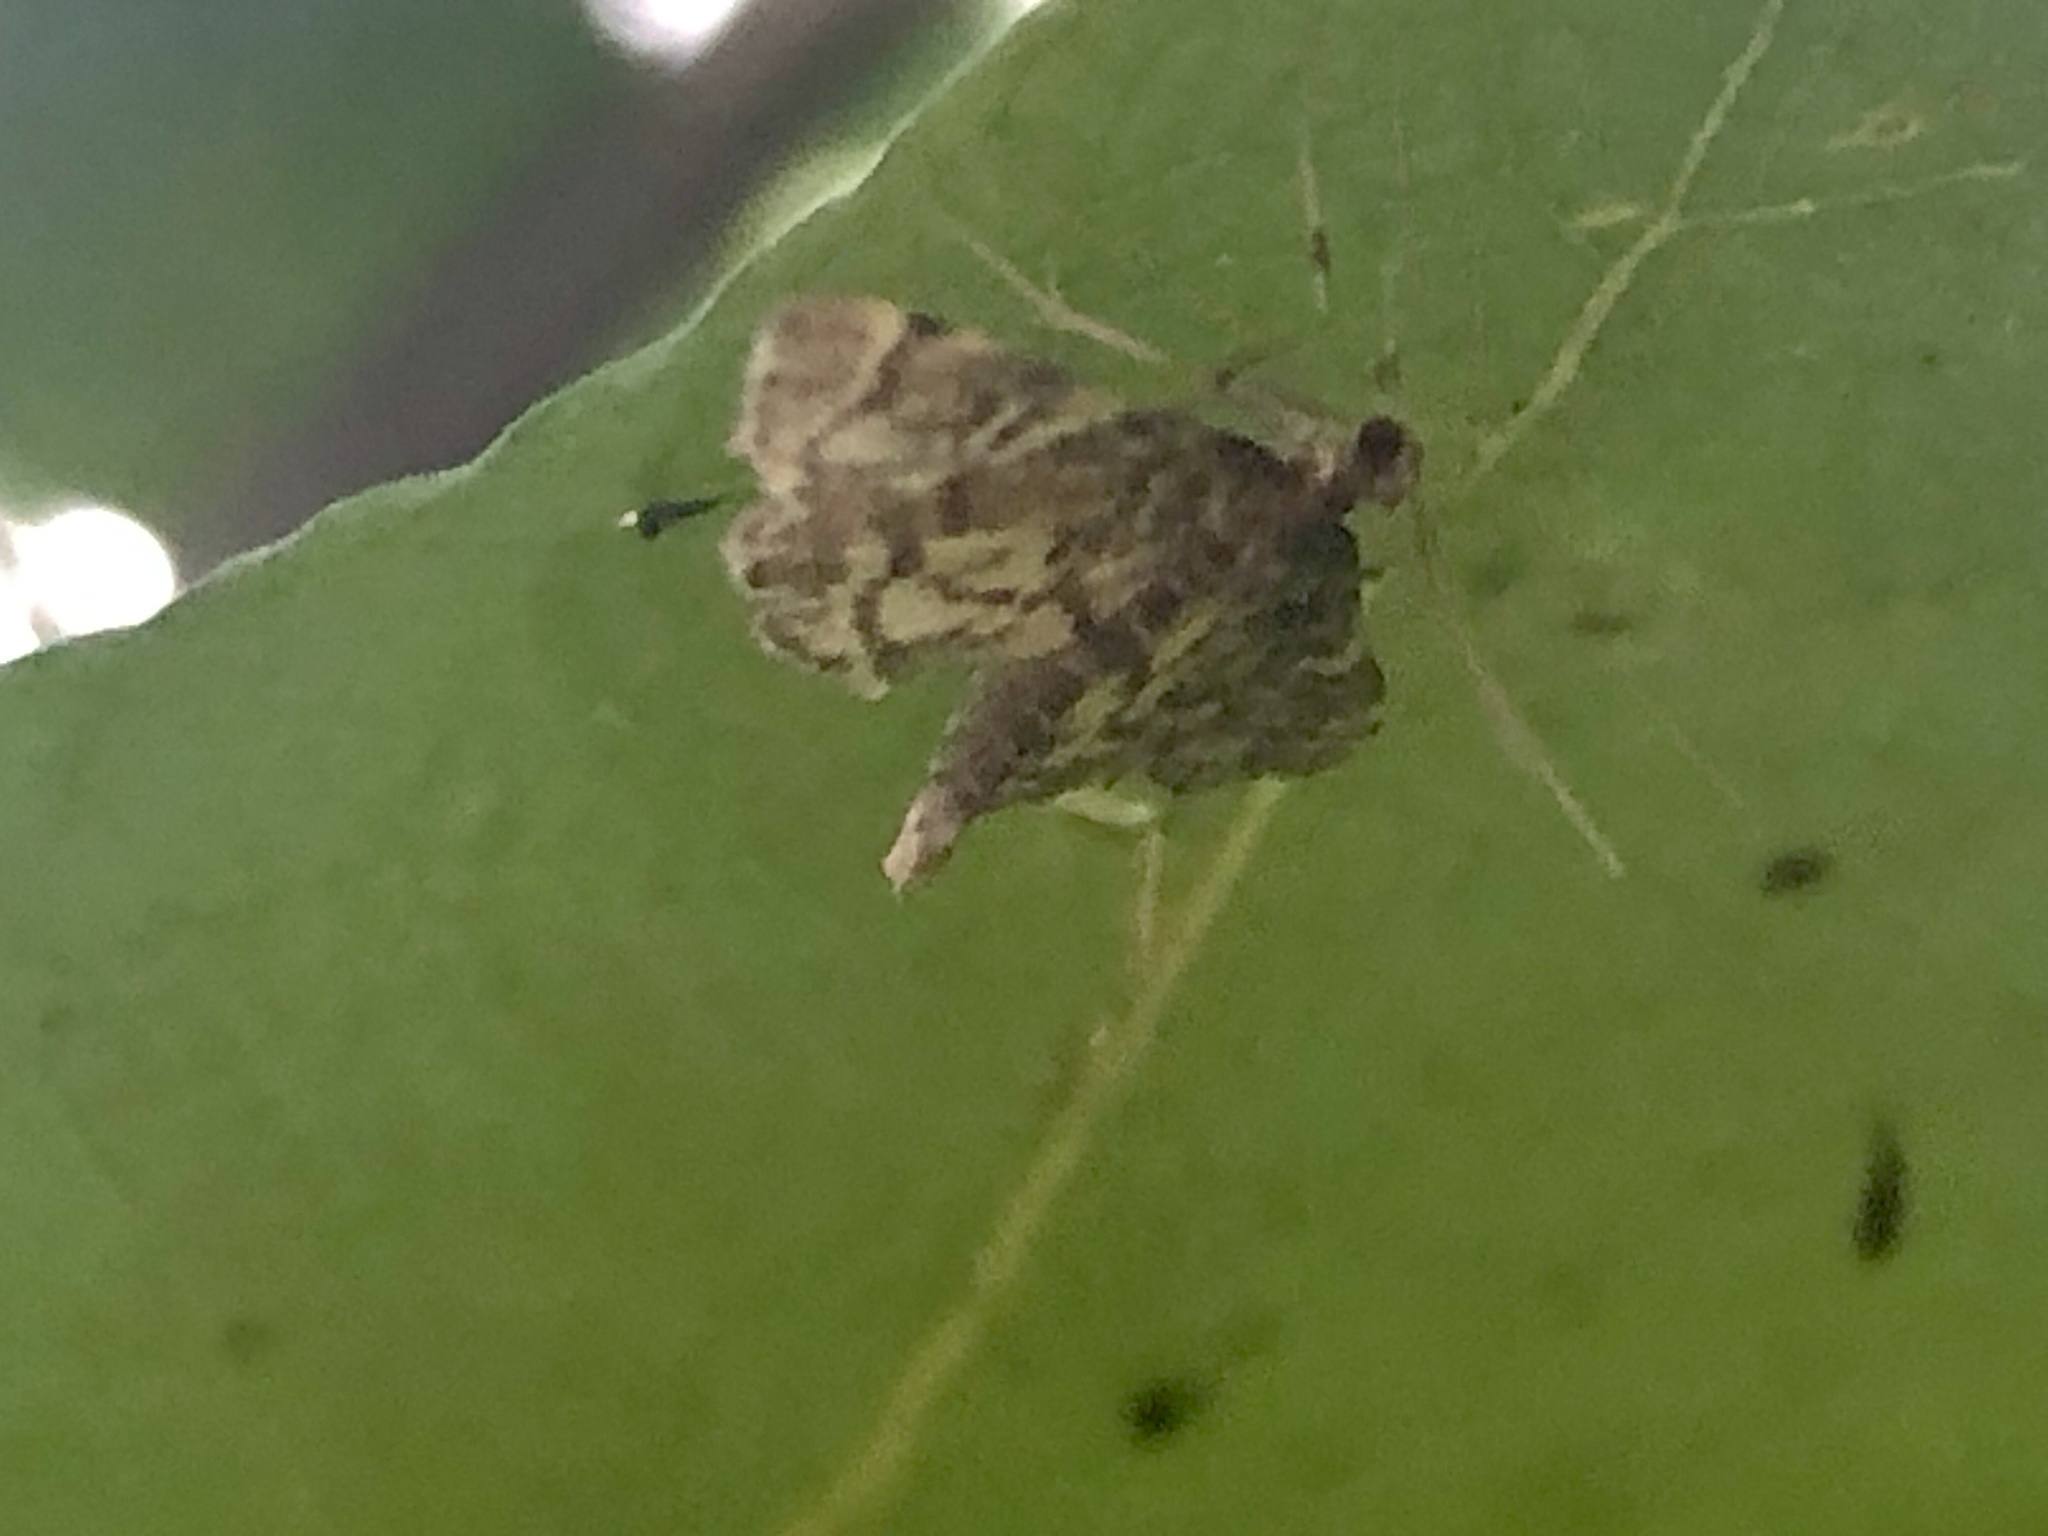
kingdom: Animalia
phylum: Arthropoda
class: Insecta
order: Lepidoptera
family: Crambidae
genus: Anageshna
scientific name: Anageshna primordialis
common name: Yellow-spotted webworm moth
